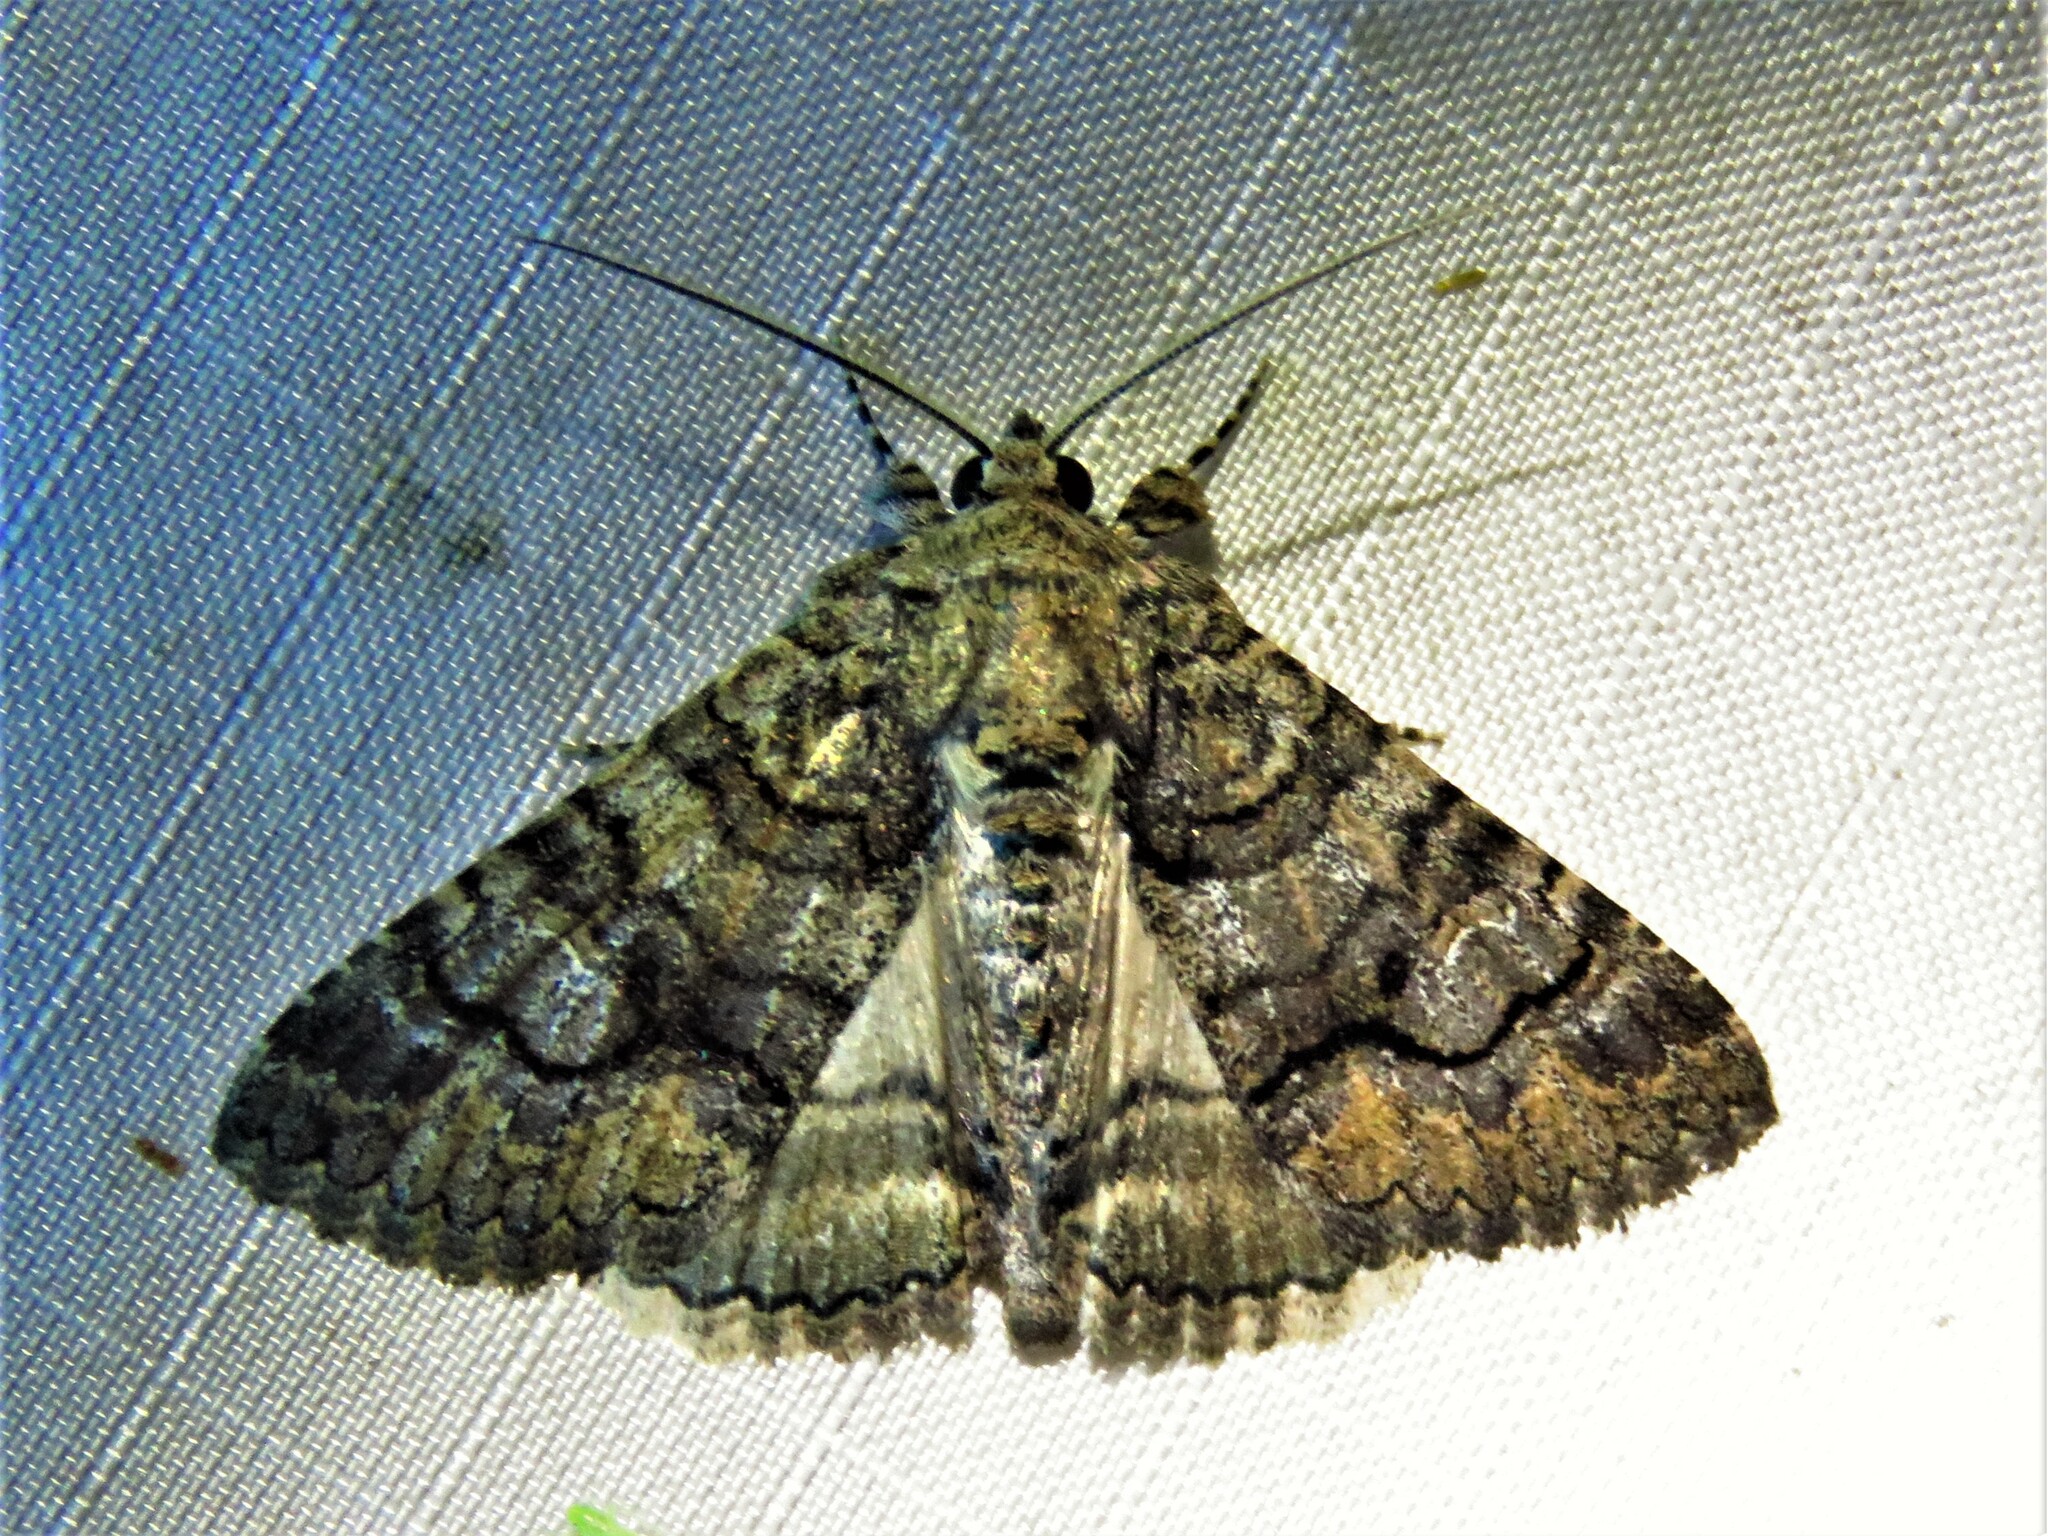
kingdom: Animalia
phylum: Arthropoda
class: Insecta
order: Lepidoptera
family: Erebidae
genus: Elousa
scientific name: Elousa mima
